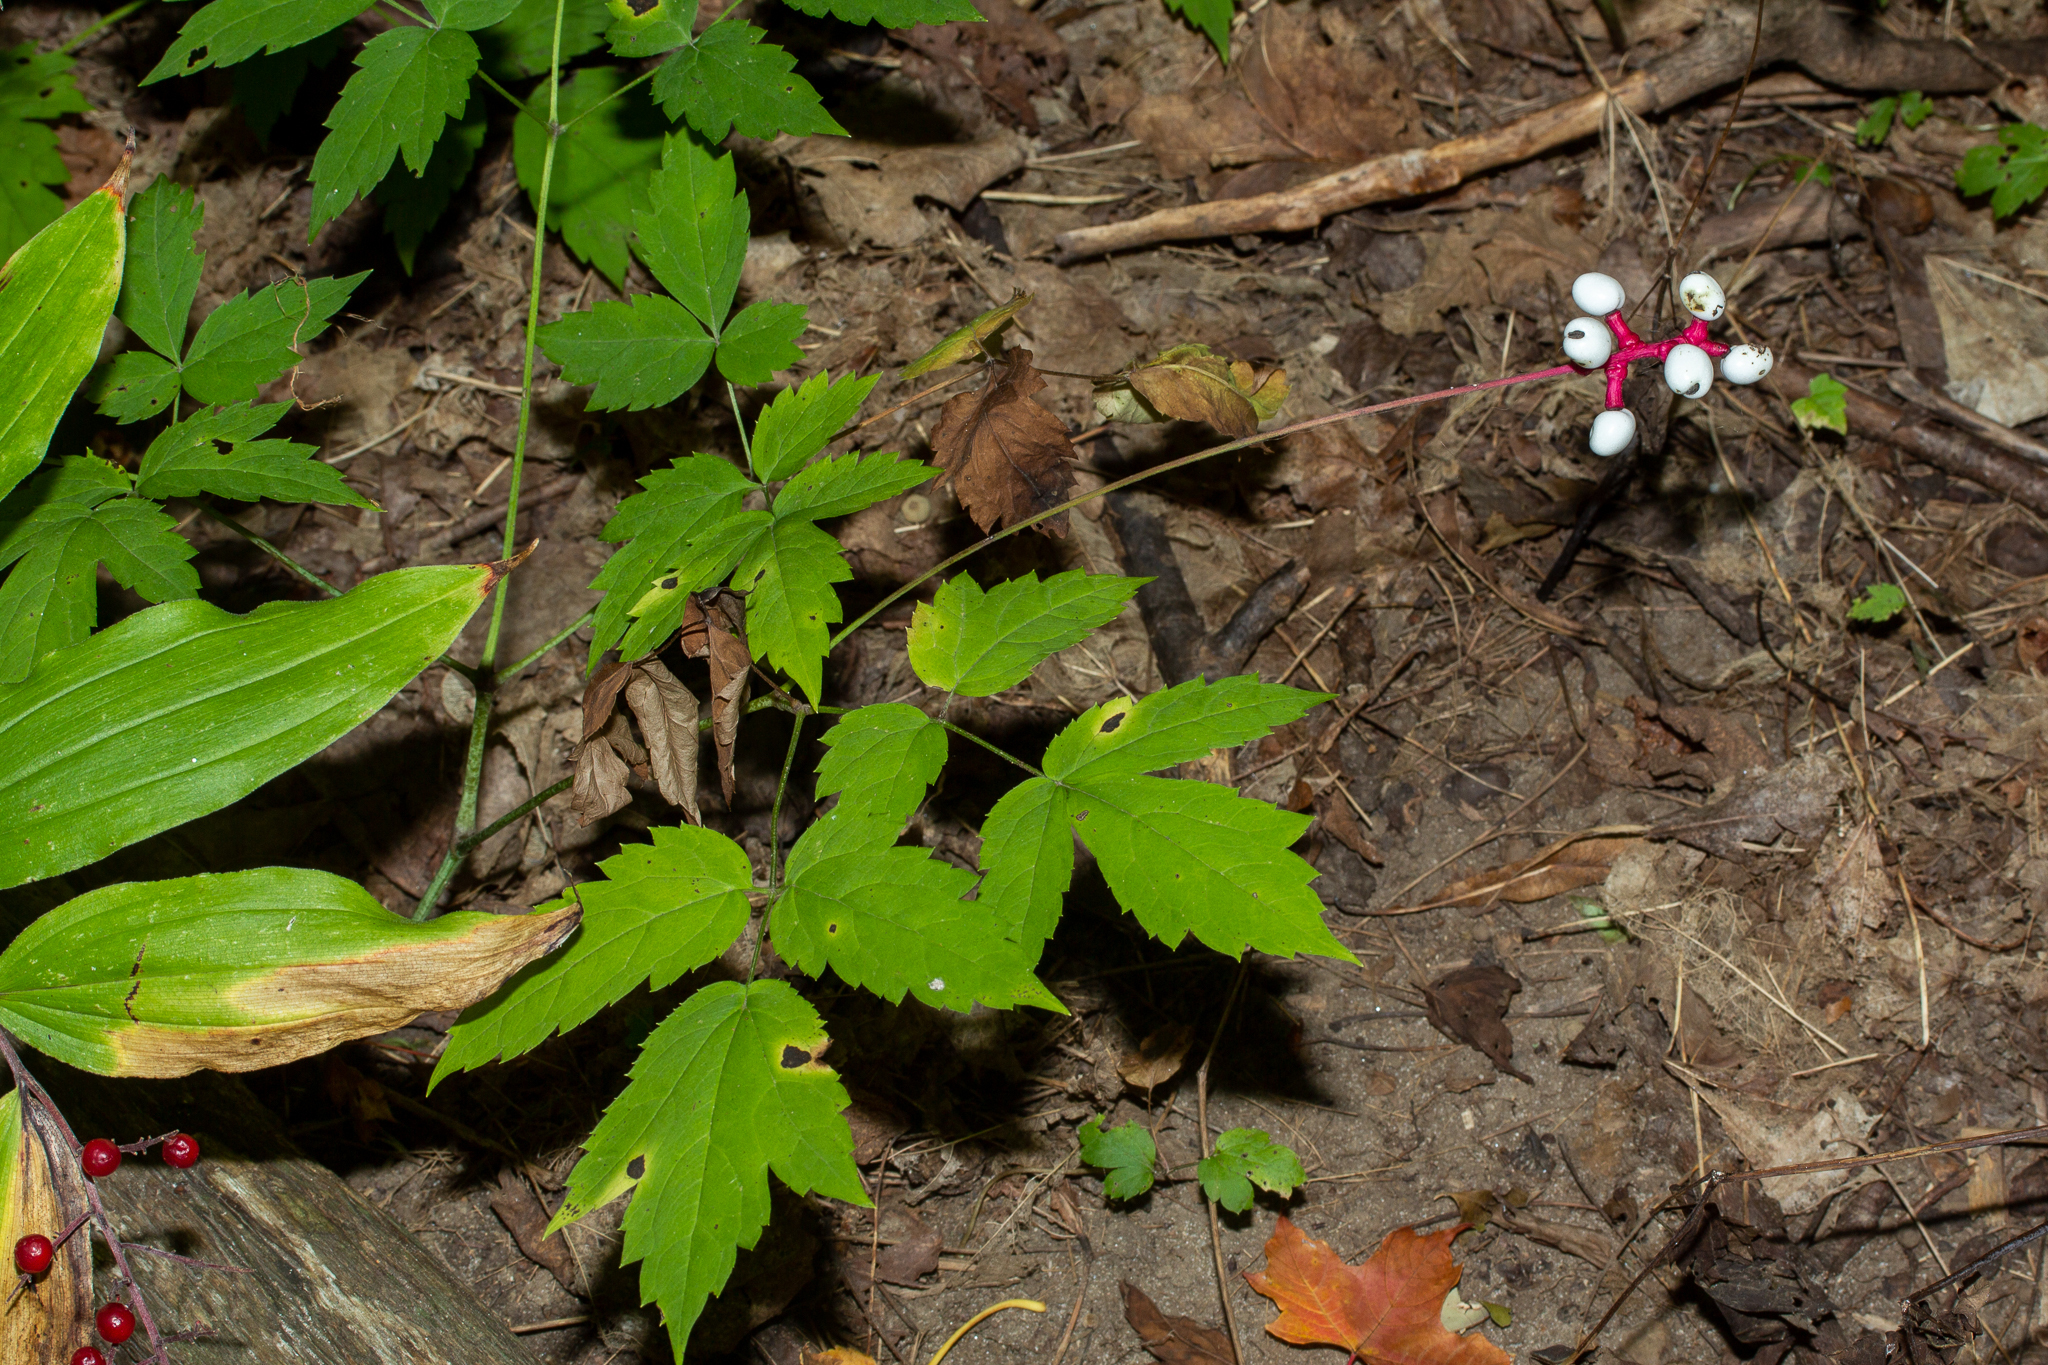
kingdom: Plantae
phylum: Tracheophyta
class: Magnoliopsida
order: Ranunculales
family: Ranunculaceae
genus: Actaea
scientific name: Actaea pachypoda
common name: Doll's-eyes
